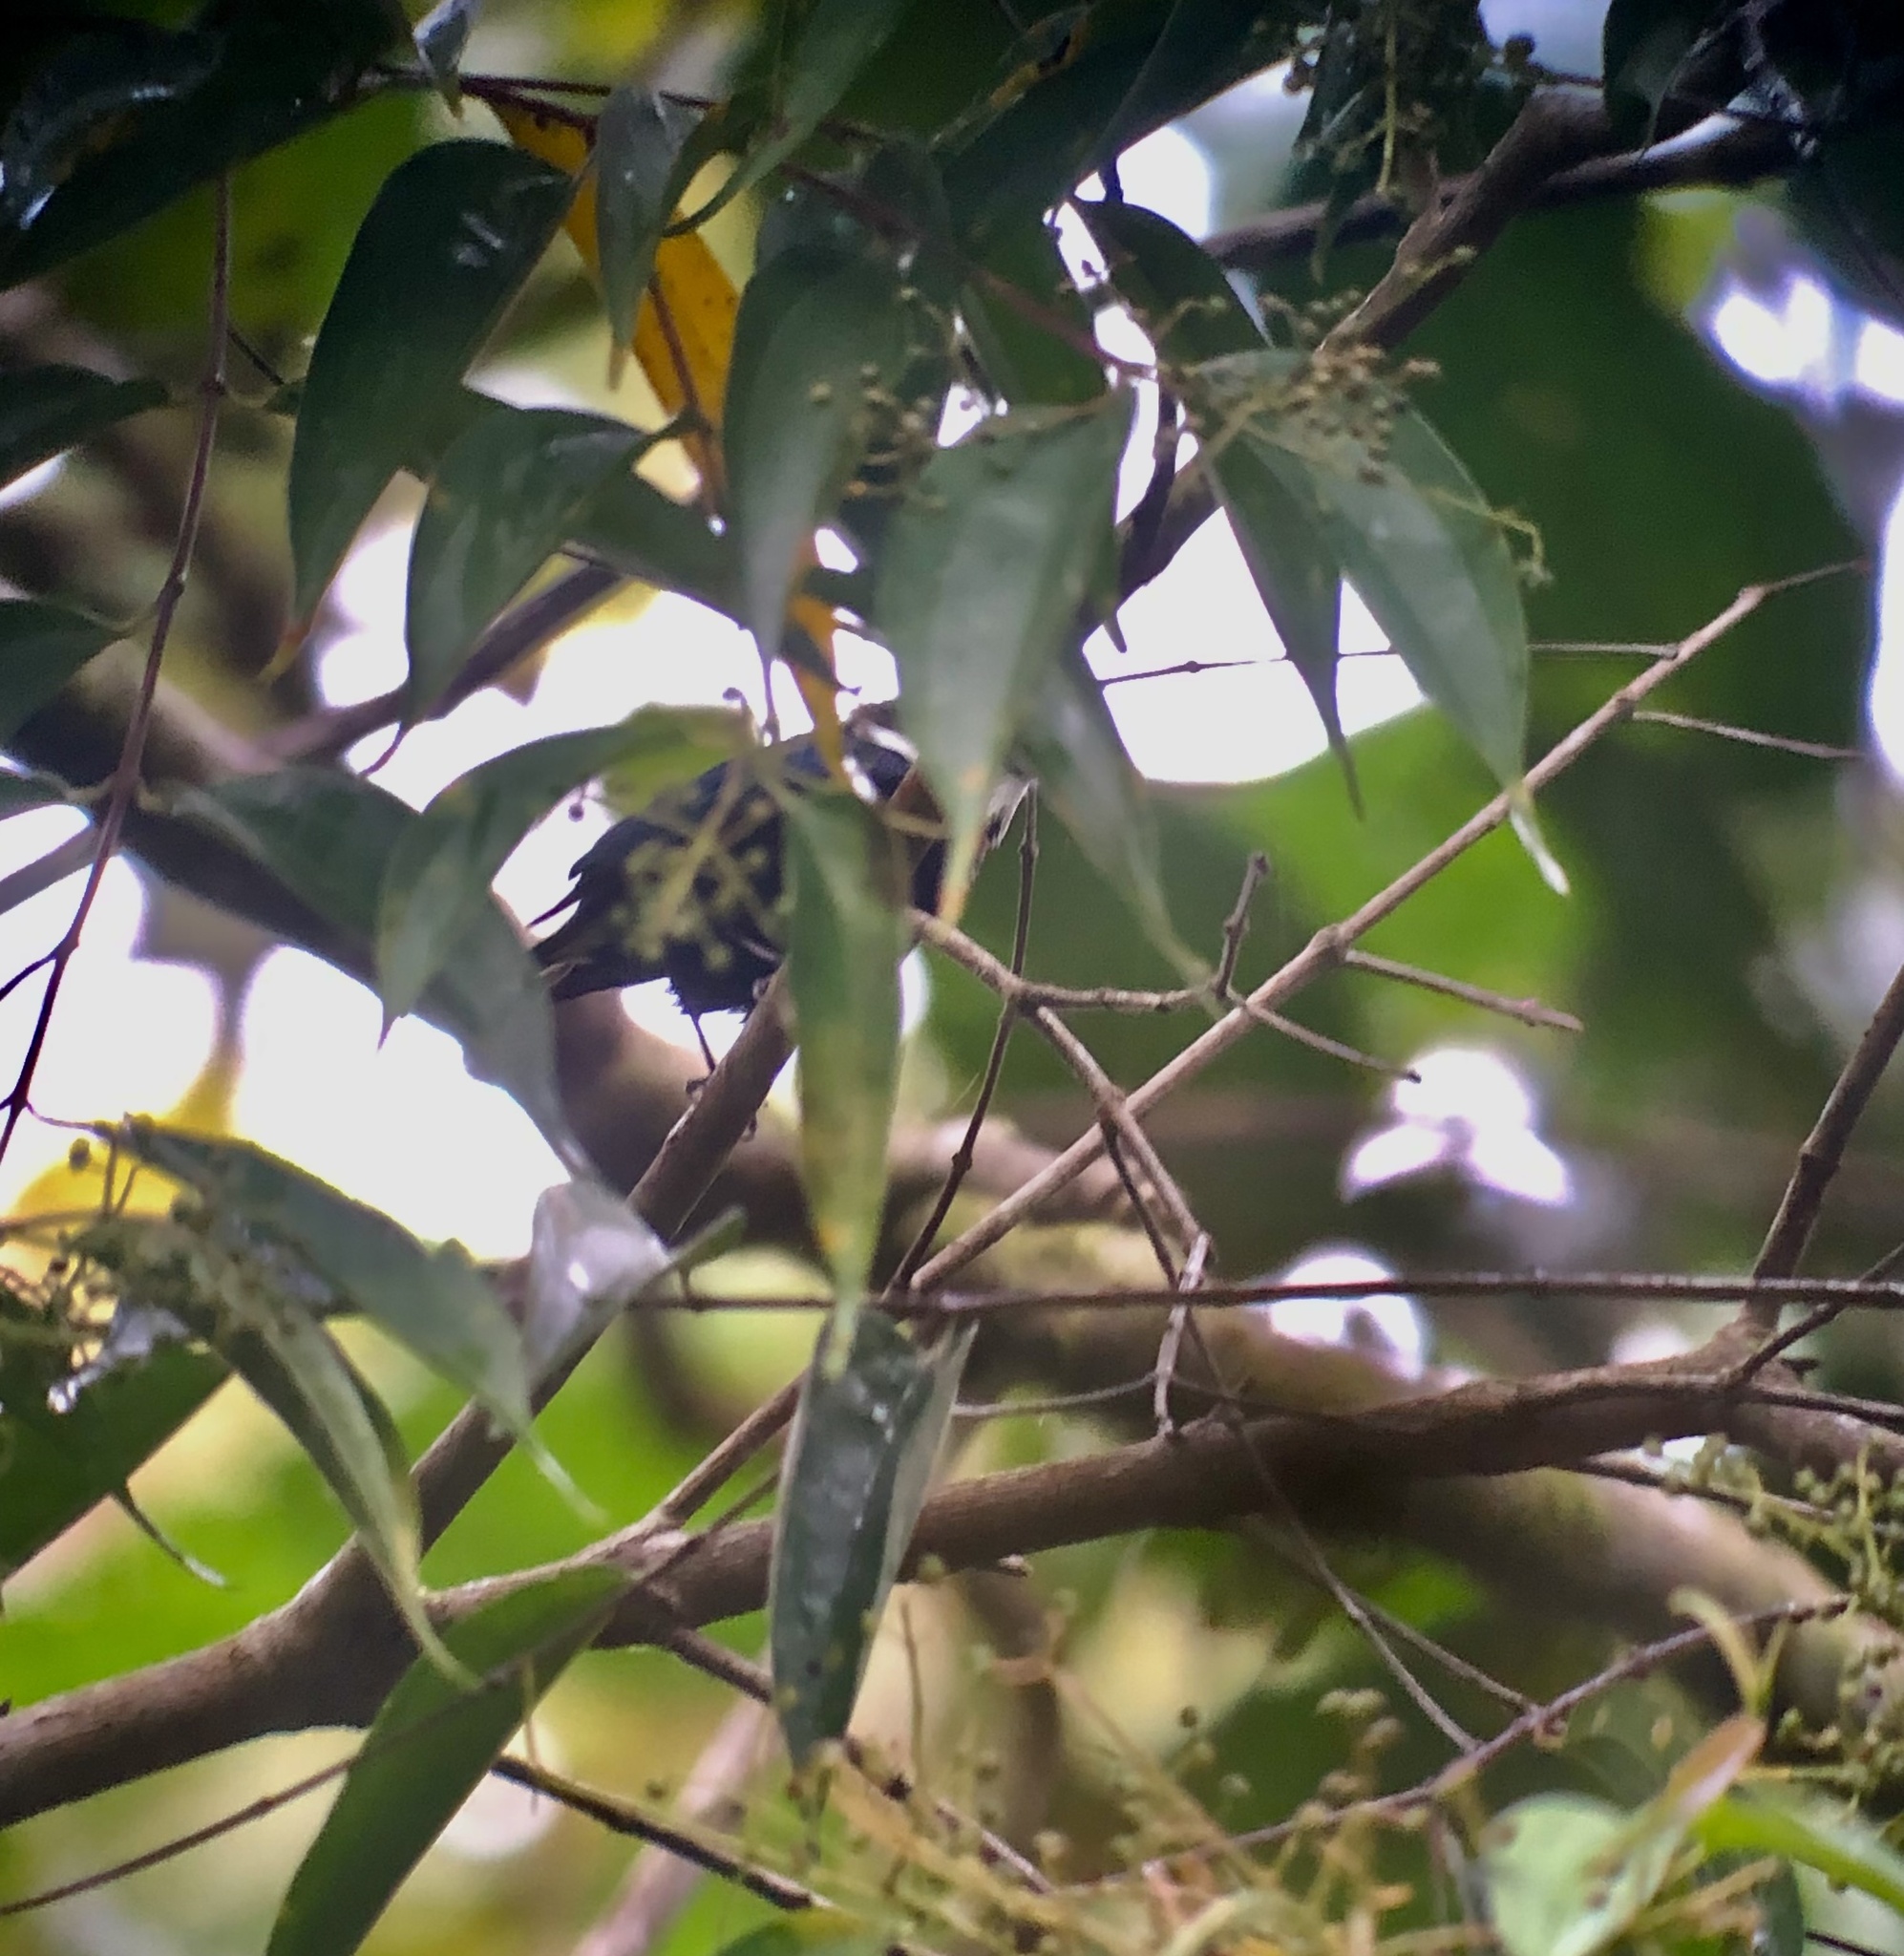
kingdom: Animalia
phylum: Chordata
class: Aves
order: Passeriformes
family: Pipridae
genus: Corapipo
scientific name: Corapipo altera
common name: White-ruffed manakin
